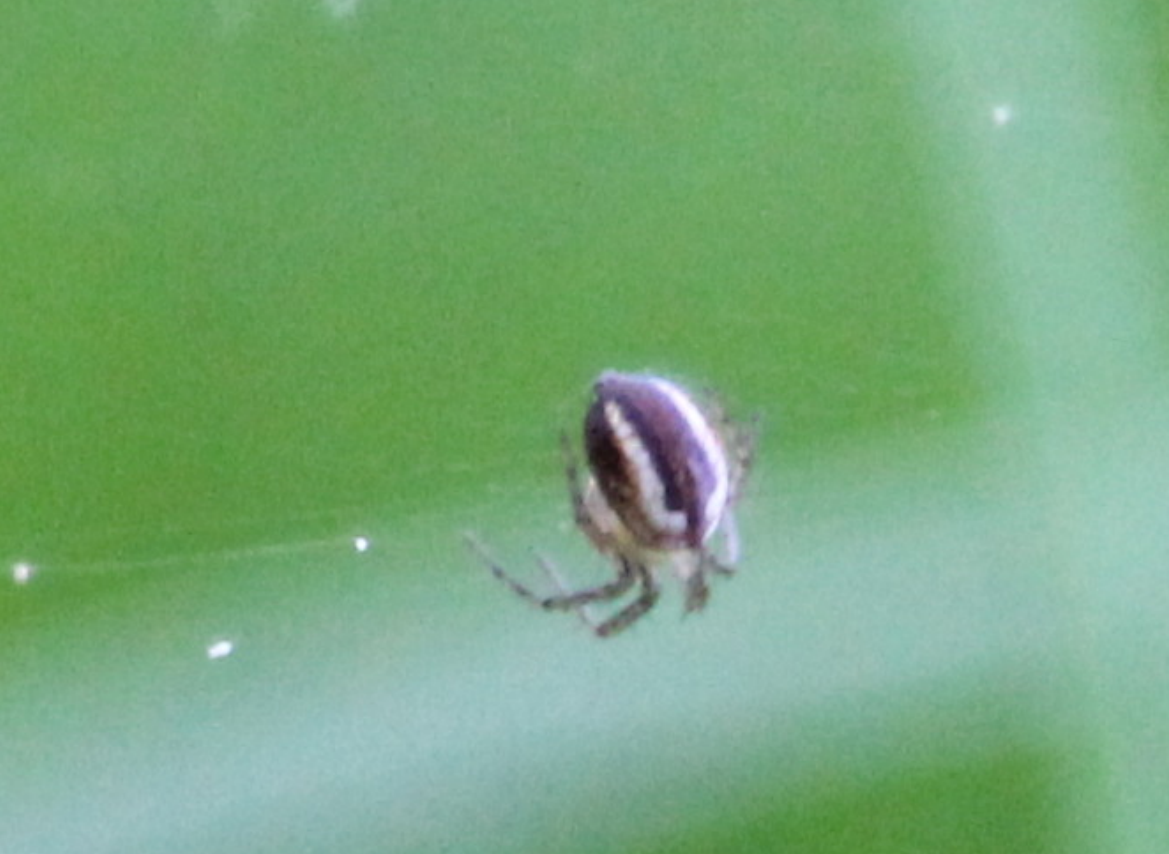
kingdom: Animalia
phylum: Arthropoda
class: Arachnida
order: Araneae
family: Araneidae
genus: Mangora
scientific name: Mangora acalypha
